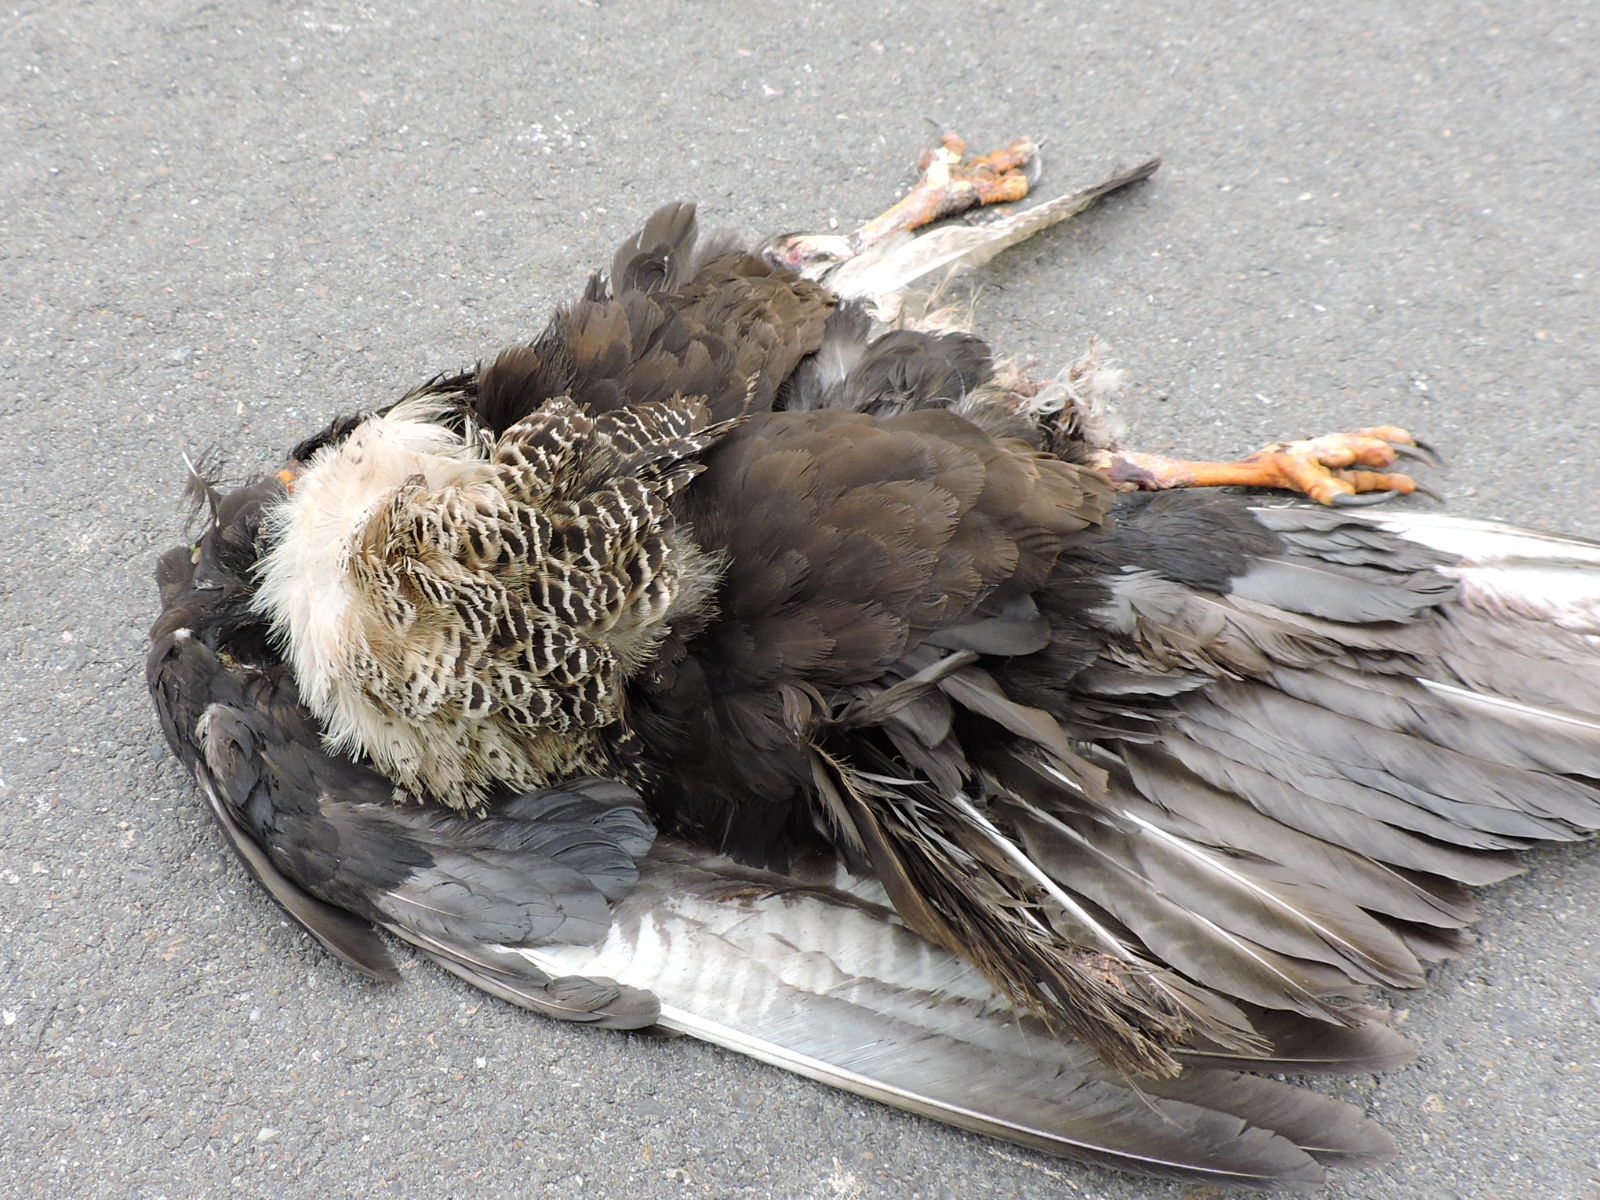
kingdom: Animalia
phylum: Chordata
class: Aves
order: Falconiformes
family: Falconidae
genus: Caracara
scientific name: Caracara plancus
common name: Southern caracara
